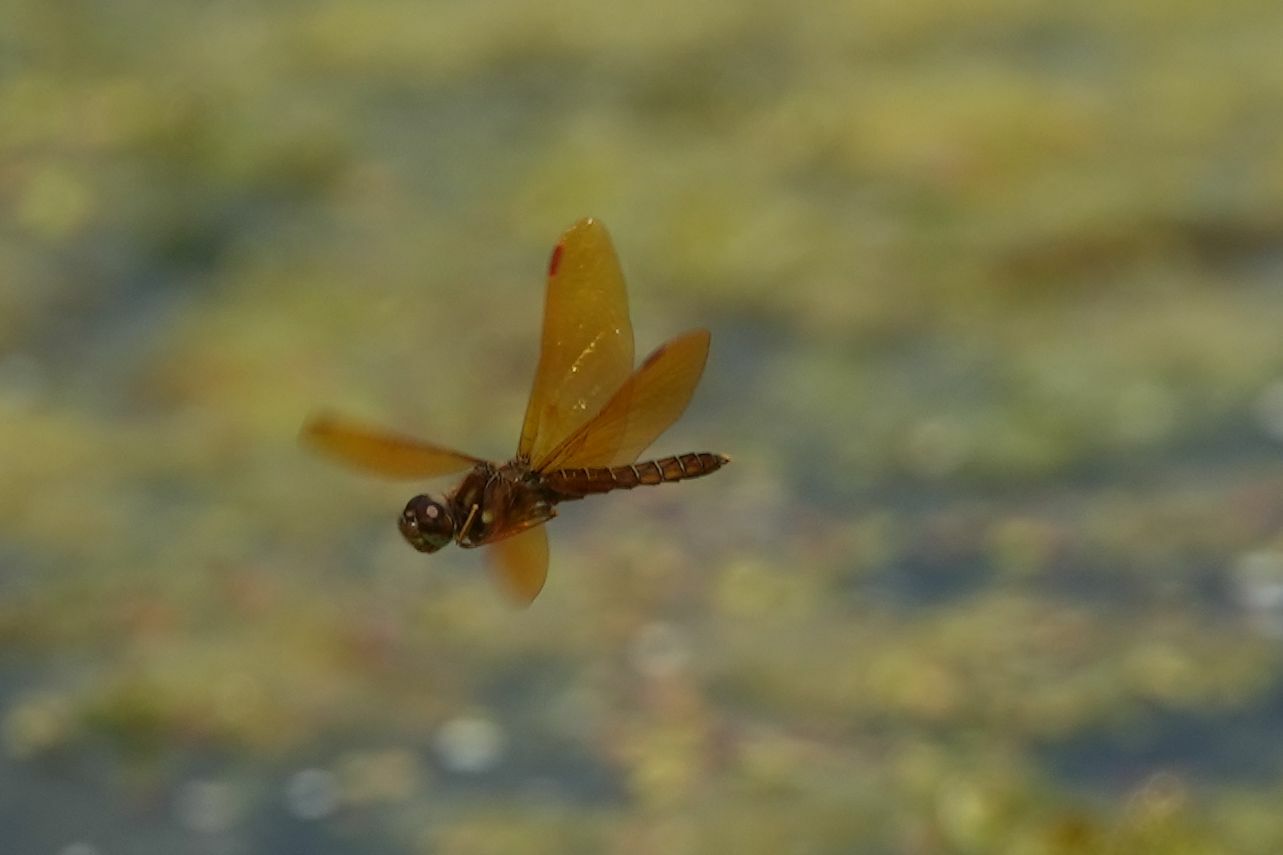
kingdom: Animalia
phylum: Arthropoda
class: Insecta
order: Odonata
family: Libellulidae
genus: Perithemis
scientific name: Perithemis tenera
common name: Eastern amberwing
